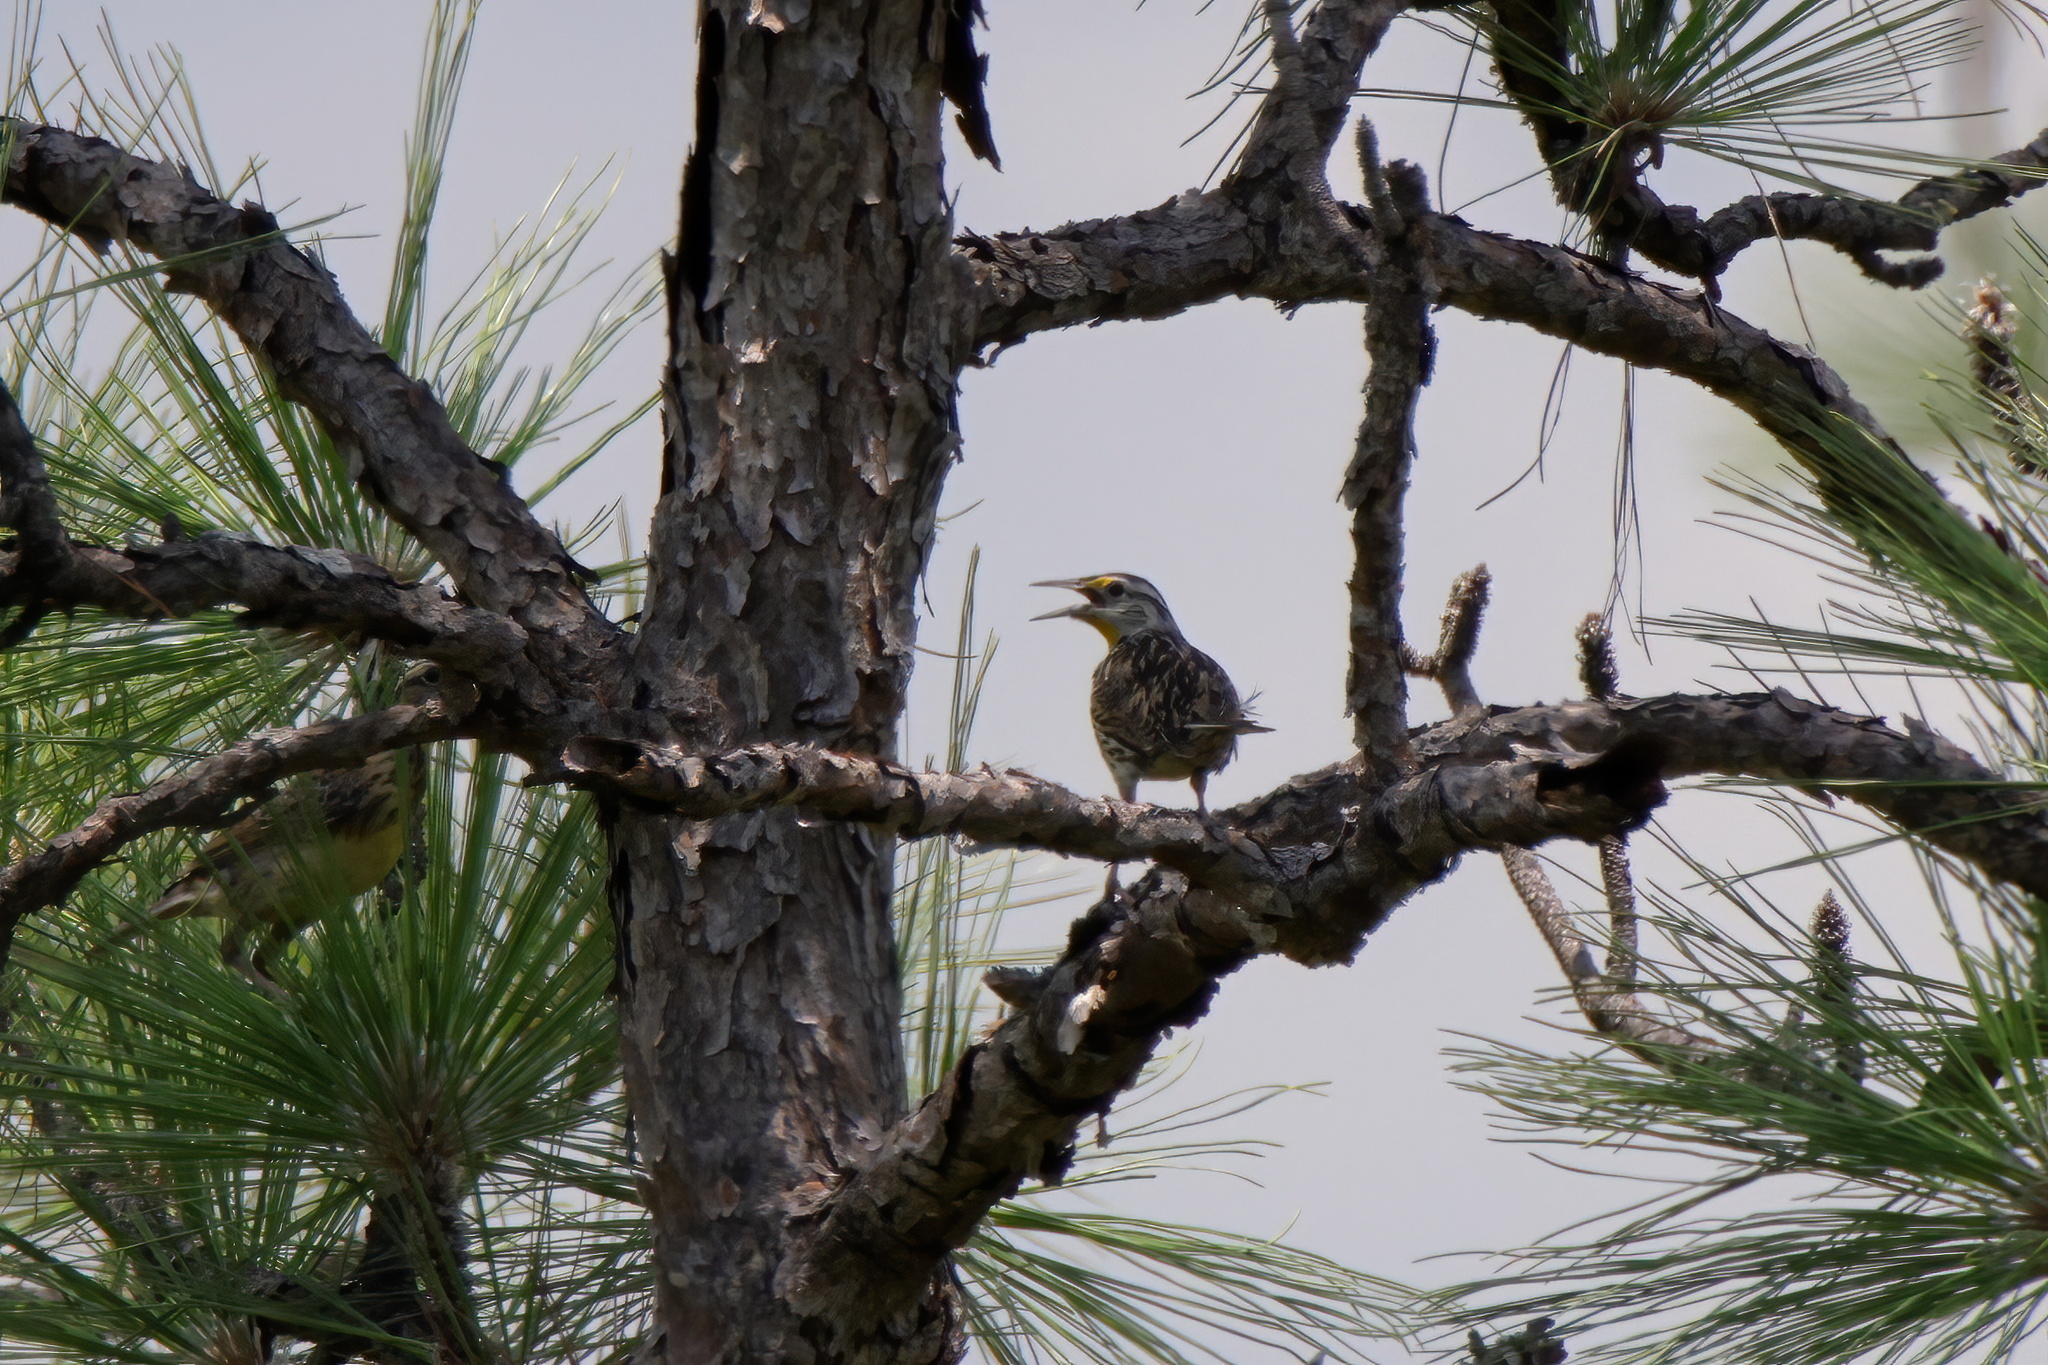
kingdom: Animalia
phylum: Chordata
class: Aves
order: Passeriformes
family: Icteridae
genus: Sturnella
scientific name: Sturnella magna
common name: Eastern meadowlark
